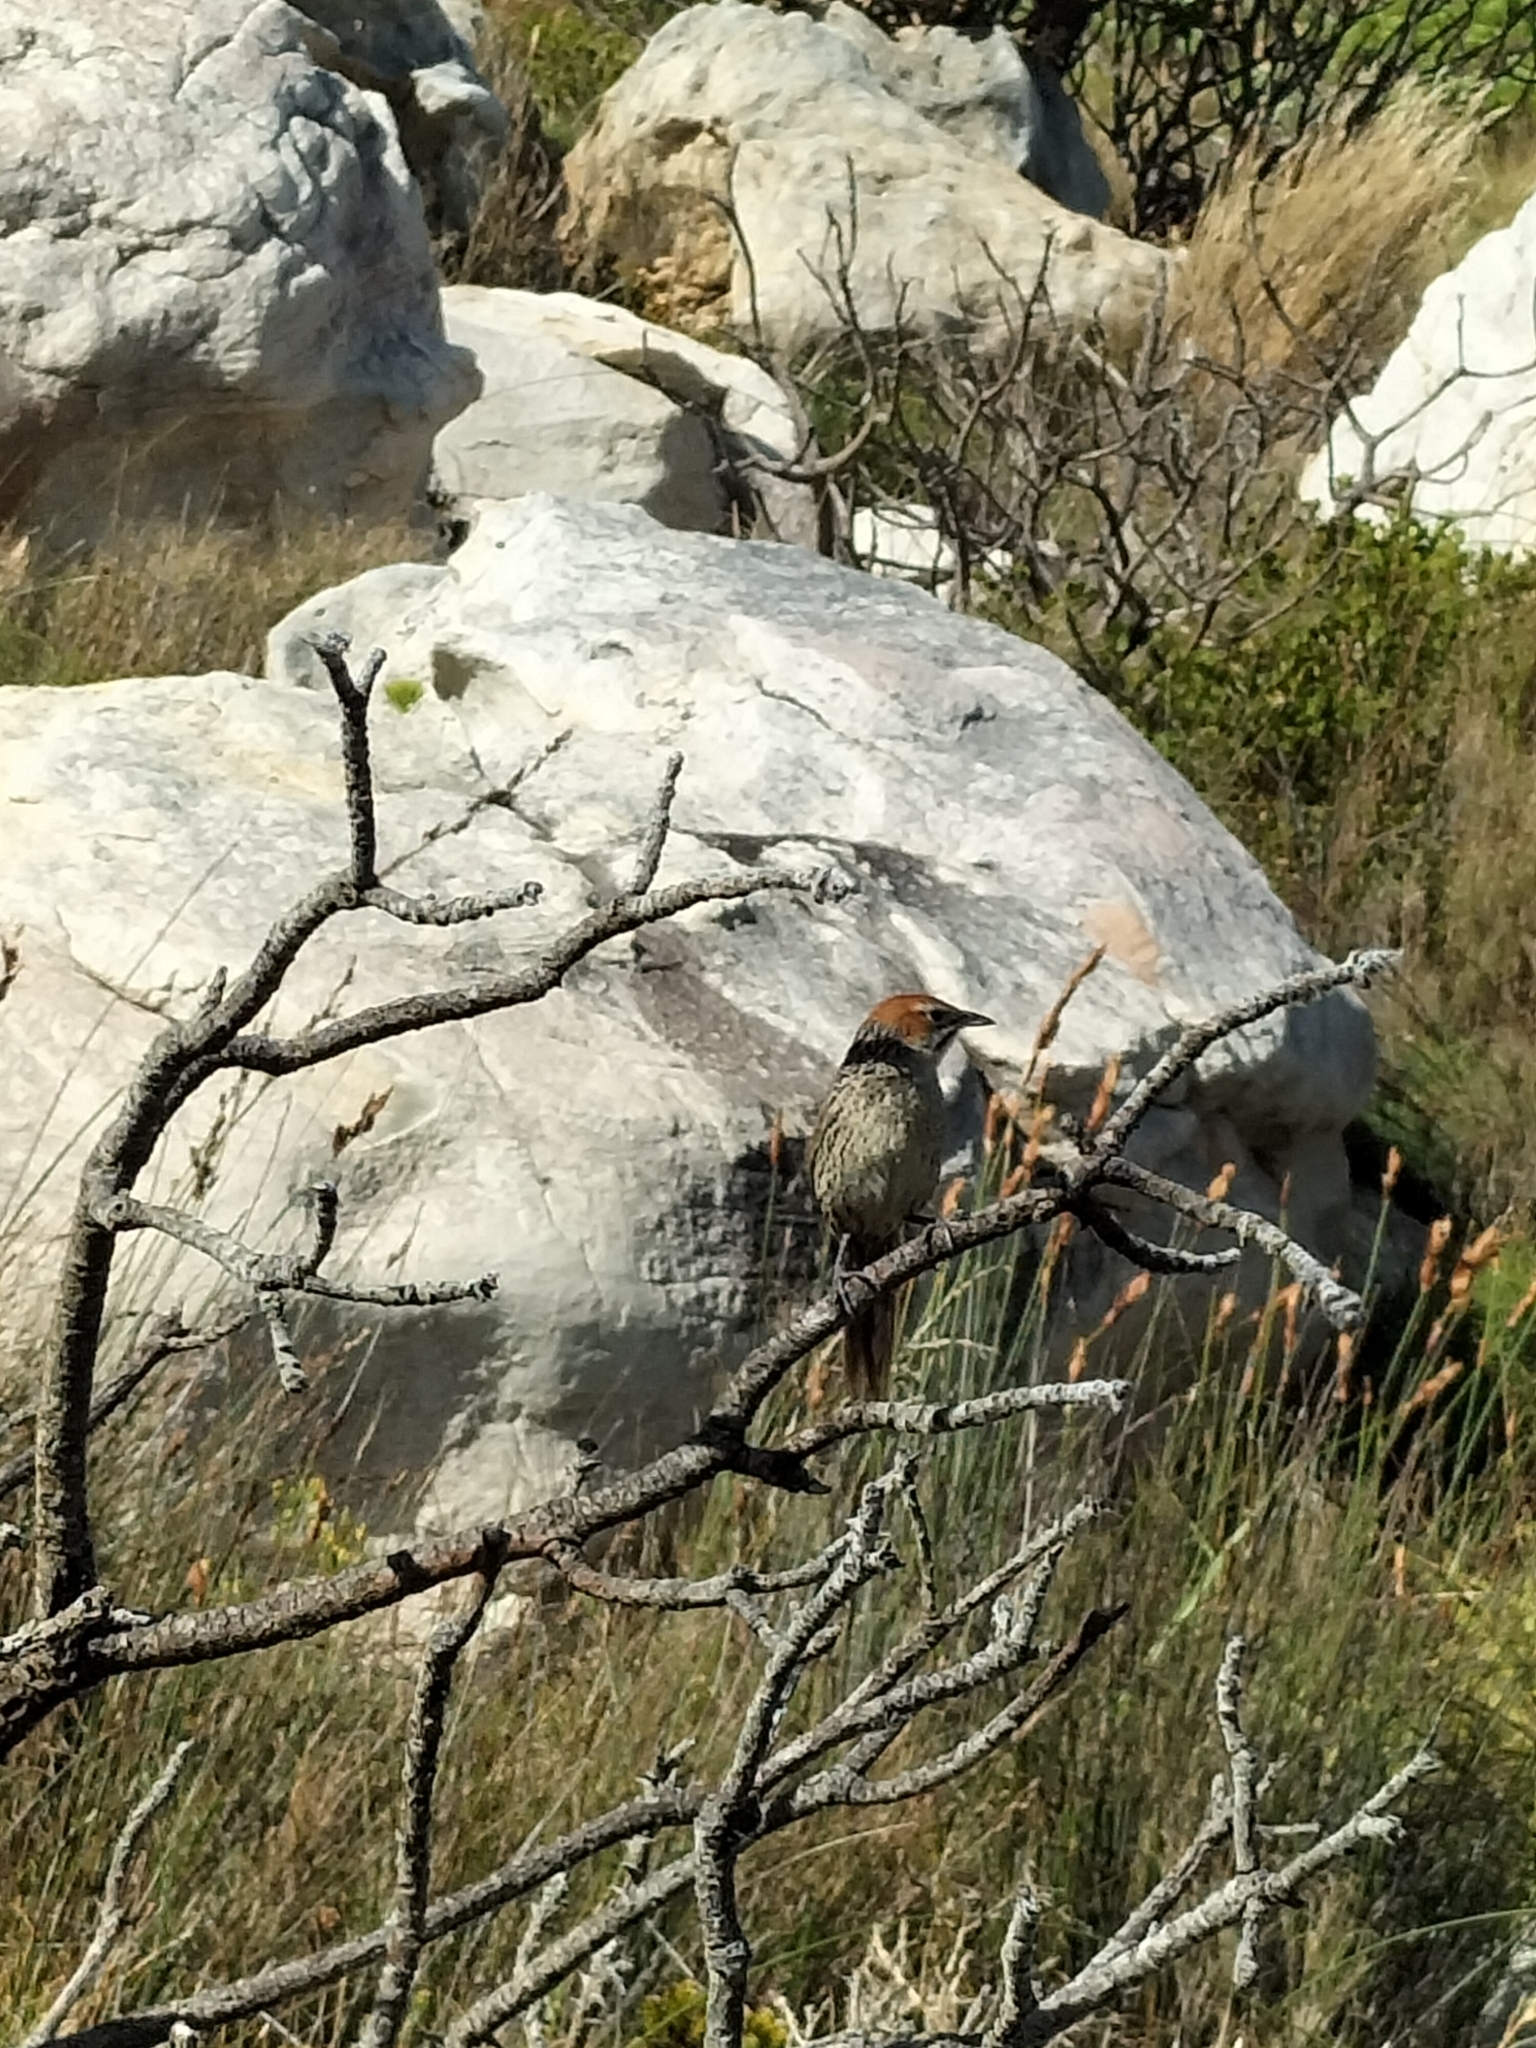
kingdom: Animalia
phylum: Chordata
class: Aves
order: Passeriformes
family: Macrosphenidae
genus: Sphenoeacus
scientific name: Sphenoeacus afer
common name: Cape grassbird
